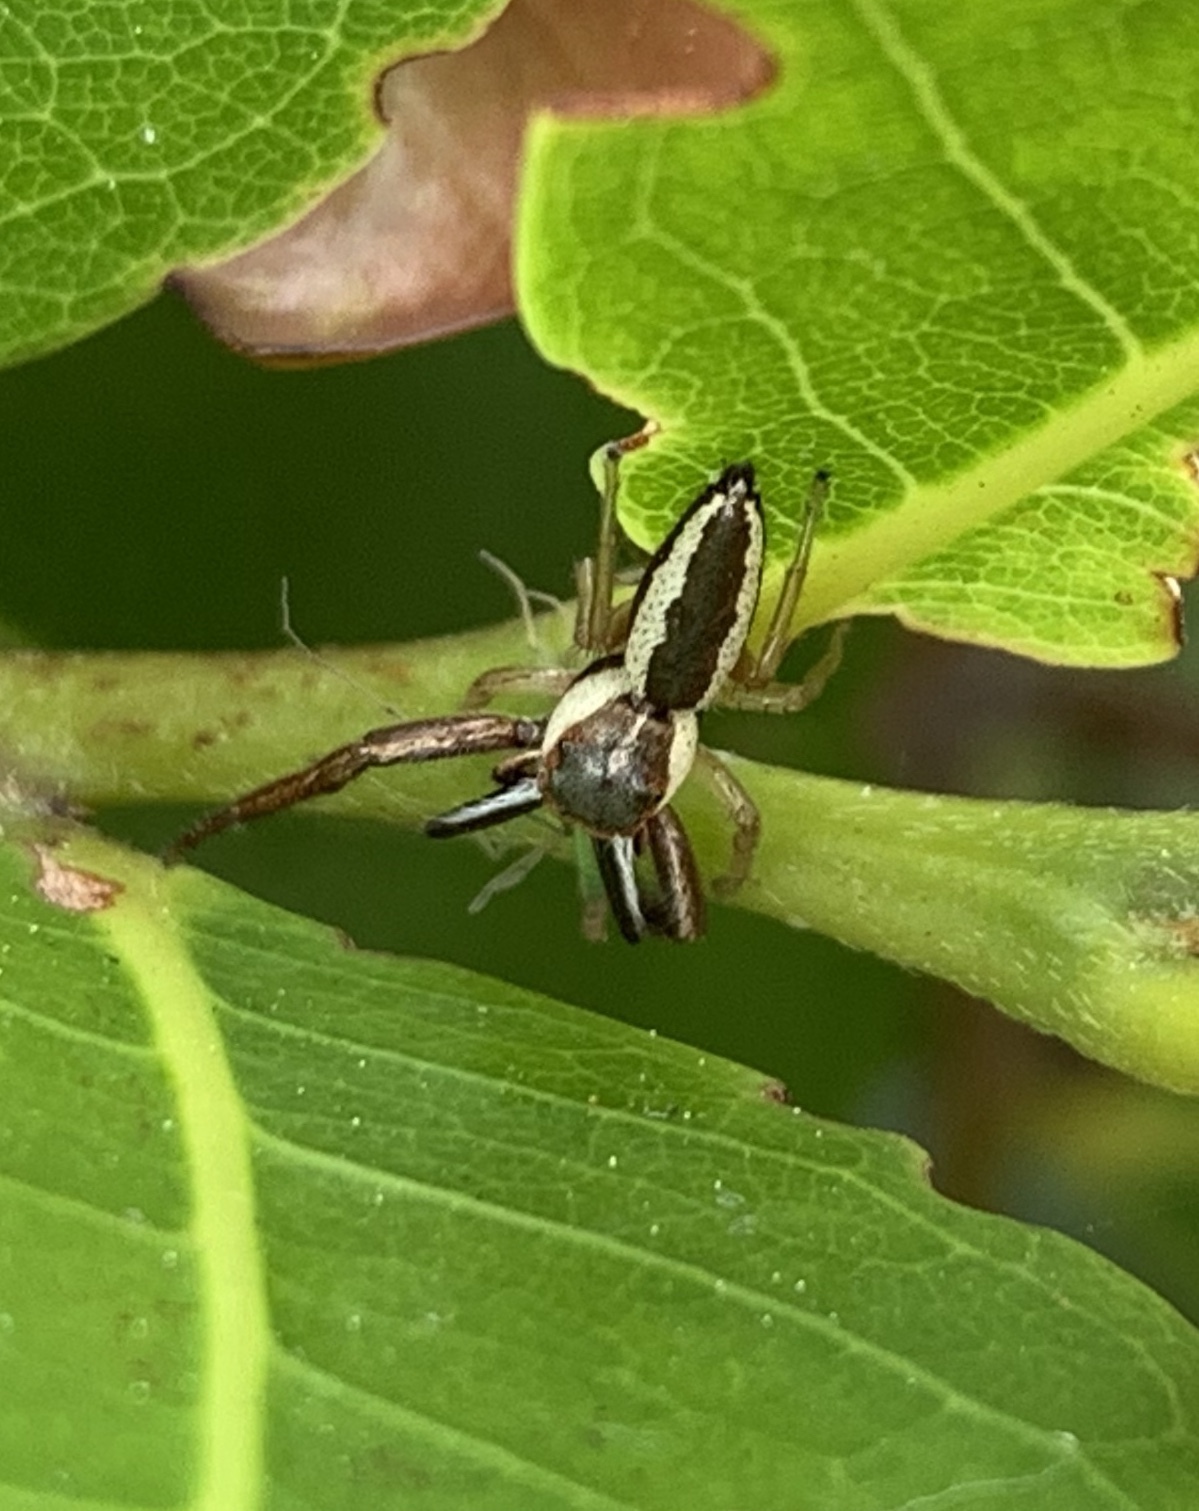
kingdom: Animalia
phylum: Arthropoda
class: Arachnida
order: Araneae
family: Salticidae
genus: Hentzia
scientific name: Hentzia palmarum
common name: Common hentz jumping spider
